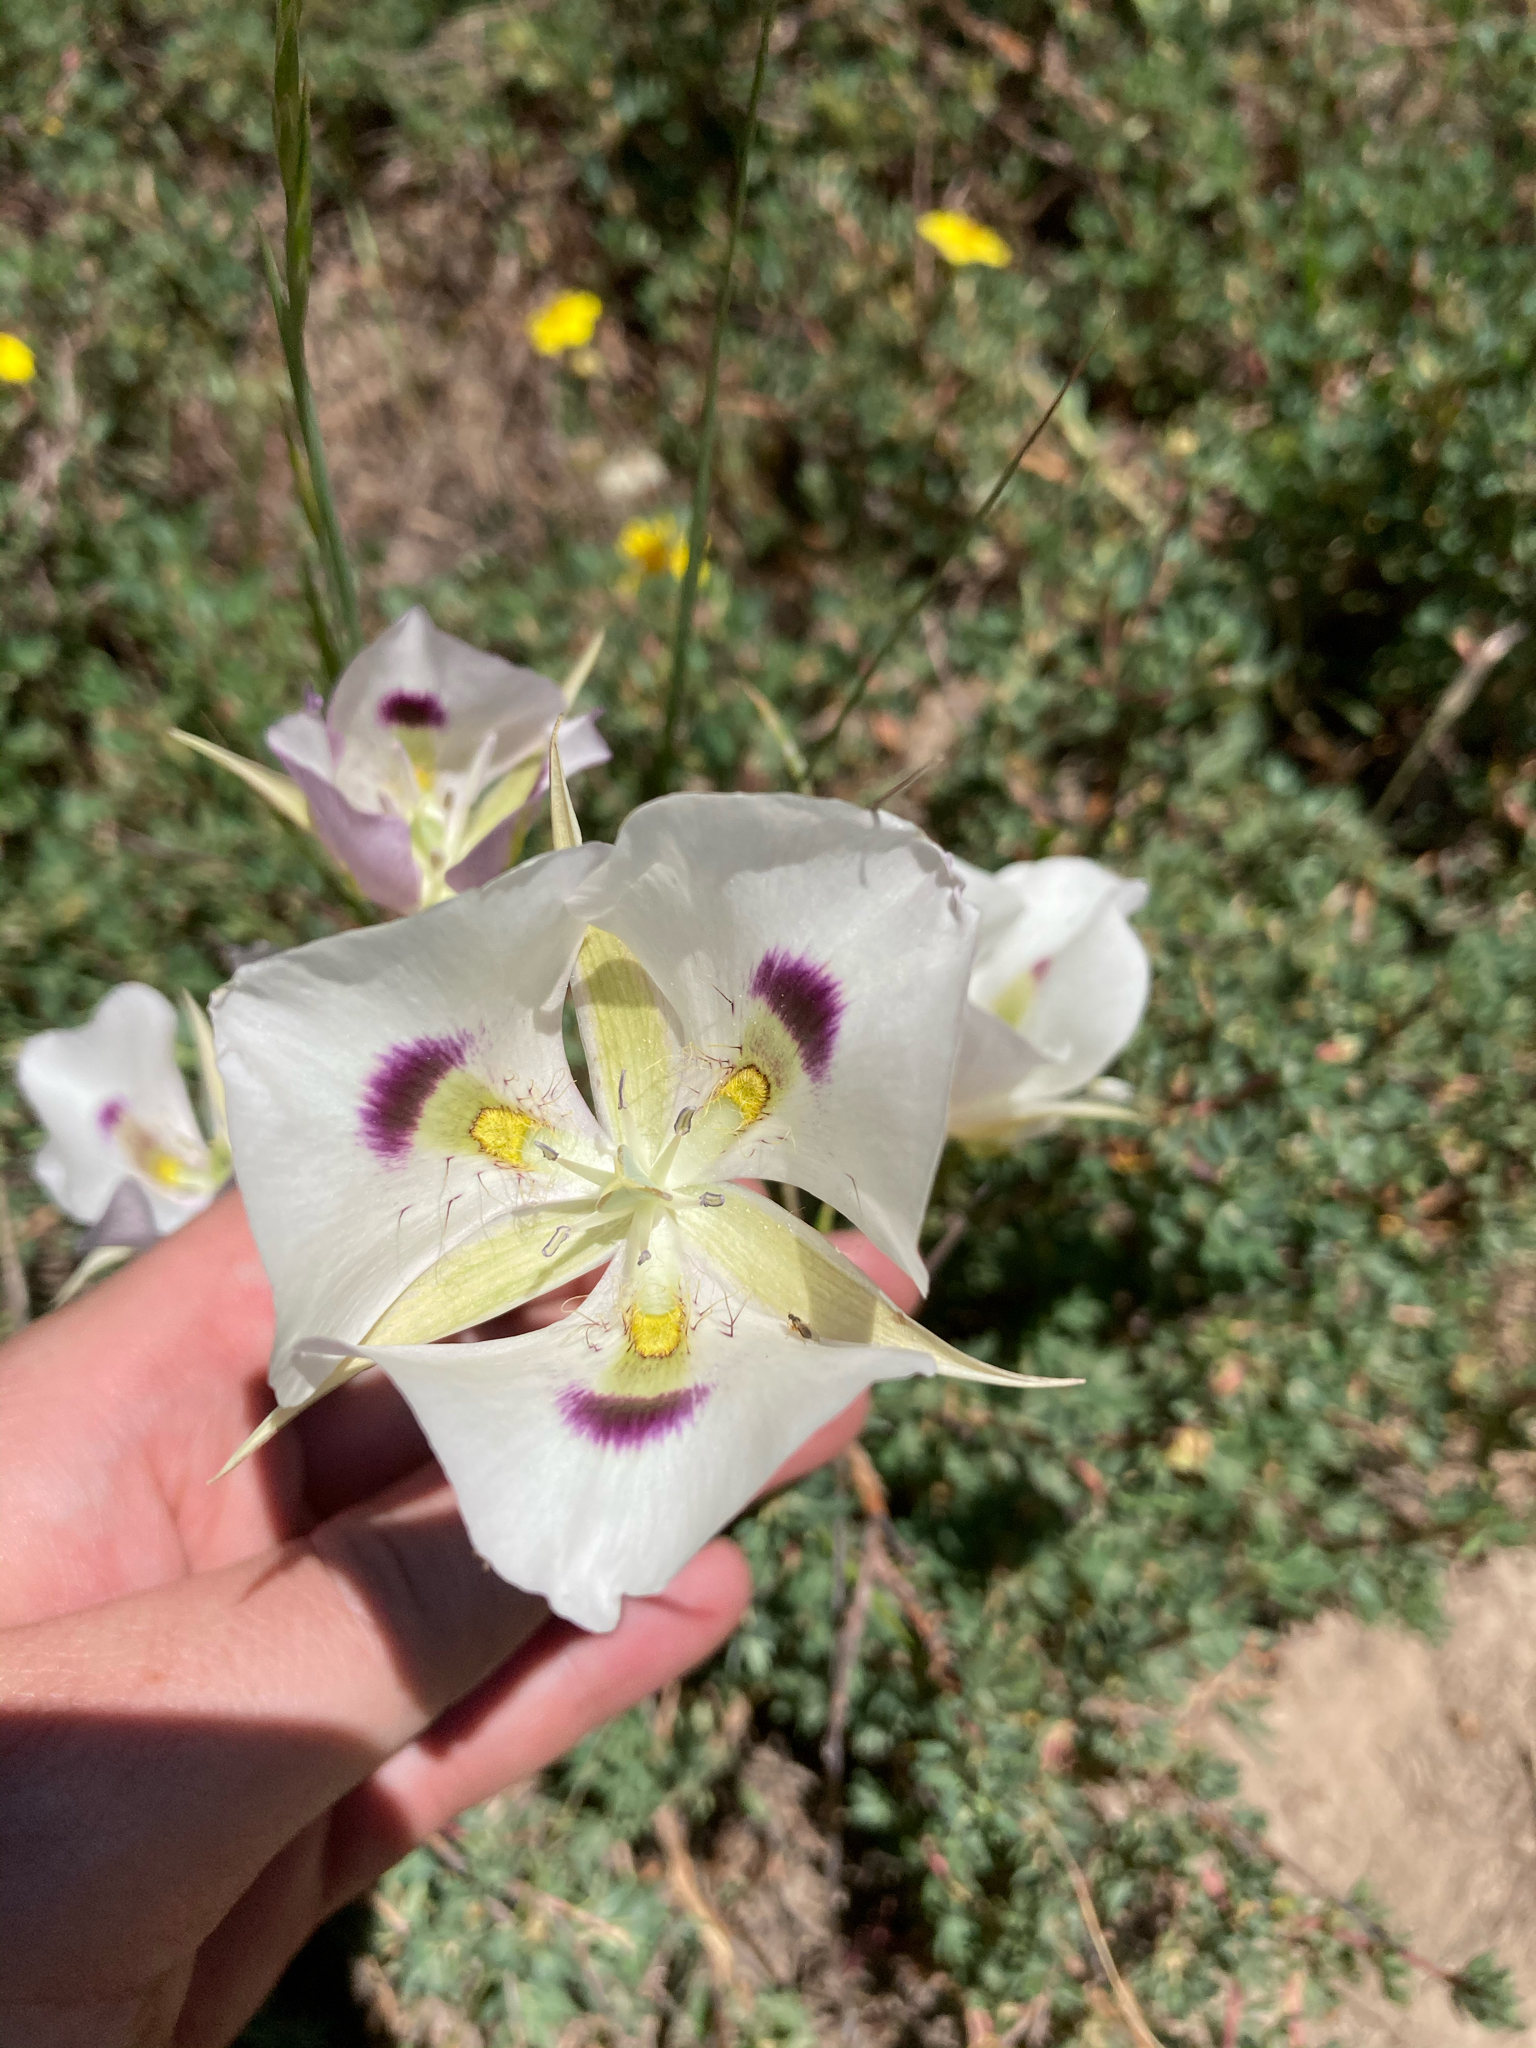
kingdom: Plantae
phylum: Tracheophyta
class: Liliopsida
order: Liliales
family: Liliaceae
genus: Calochortus
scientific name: Calochortus eurycarpus
